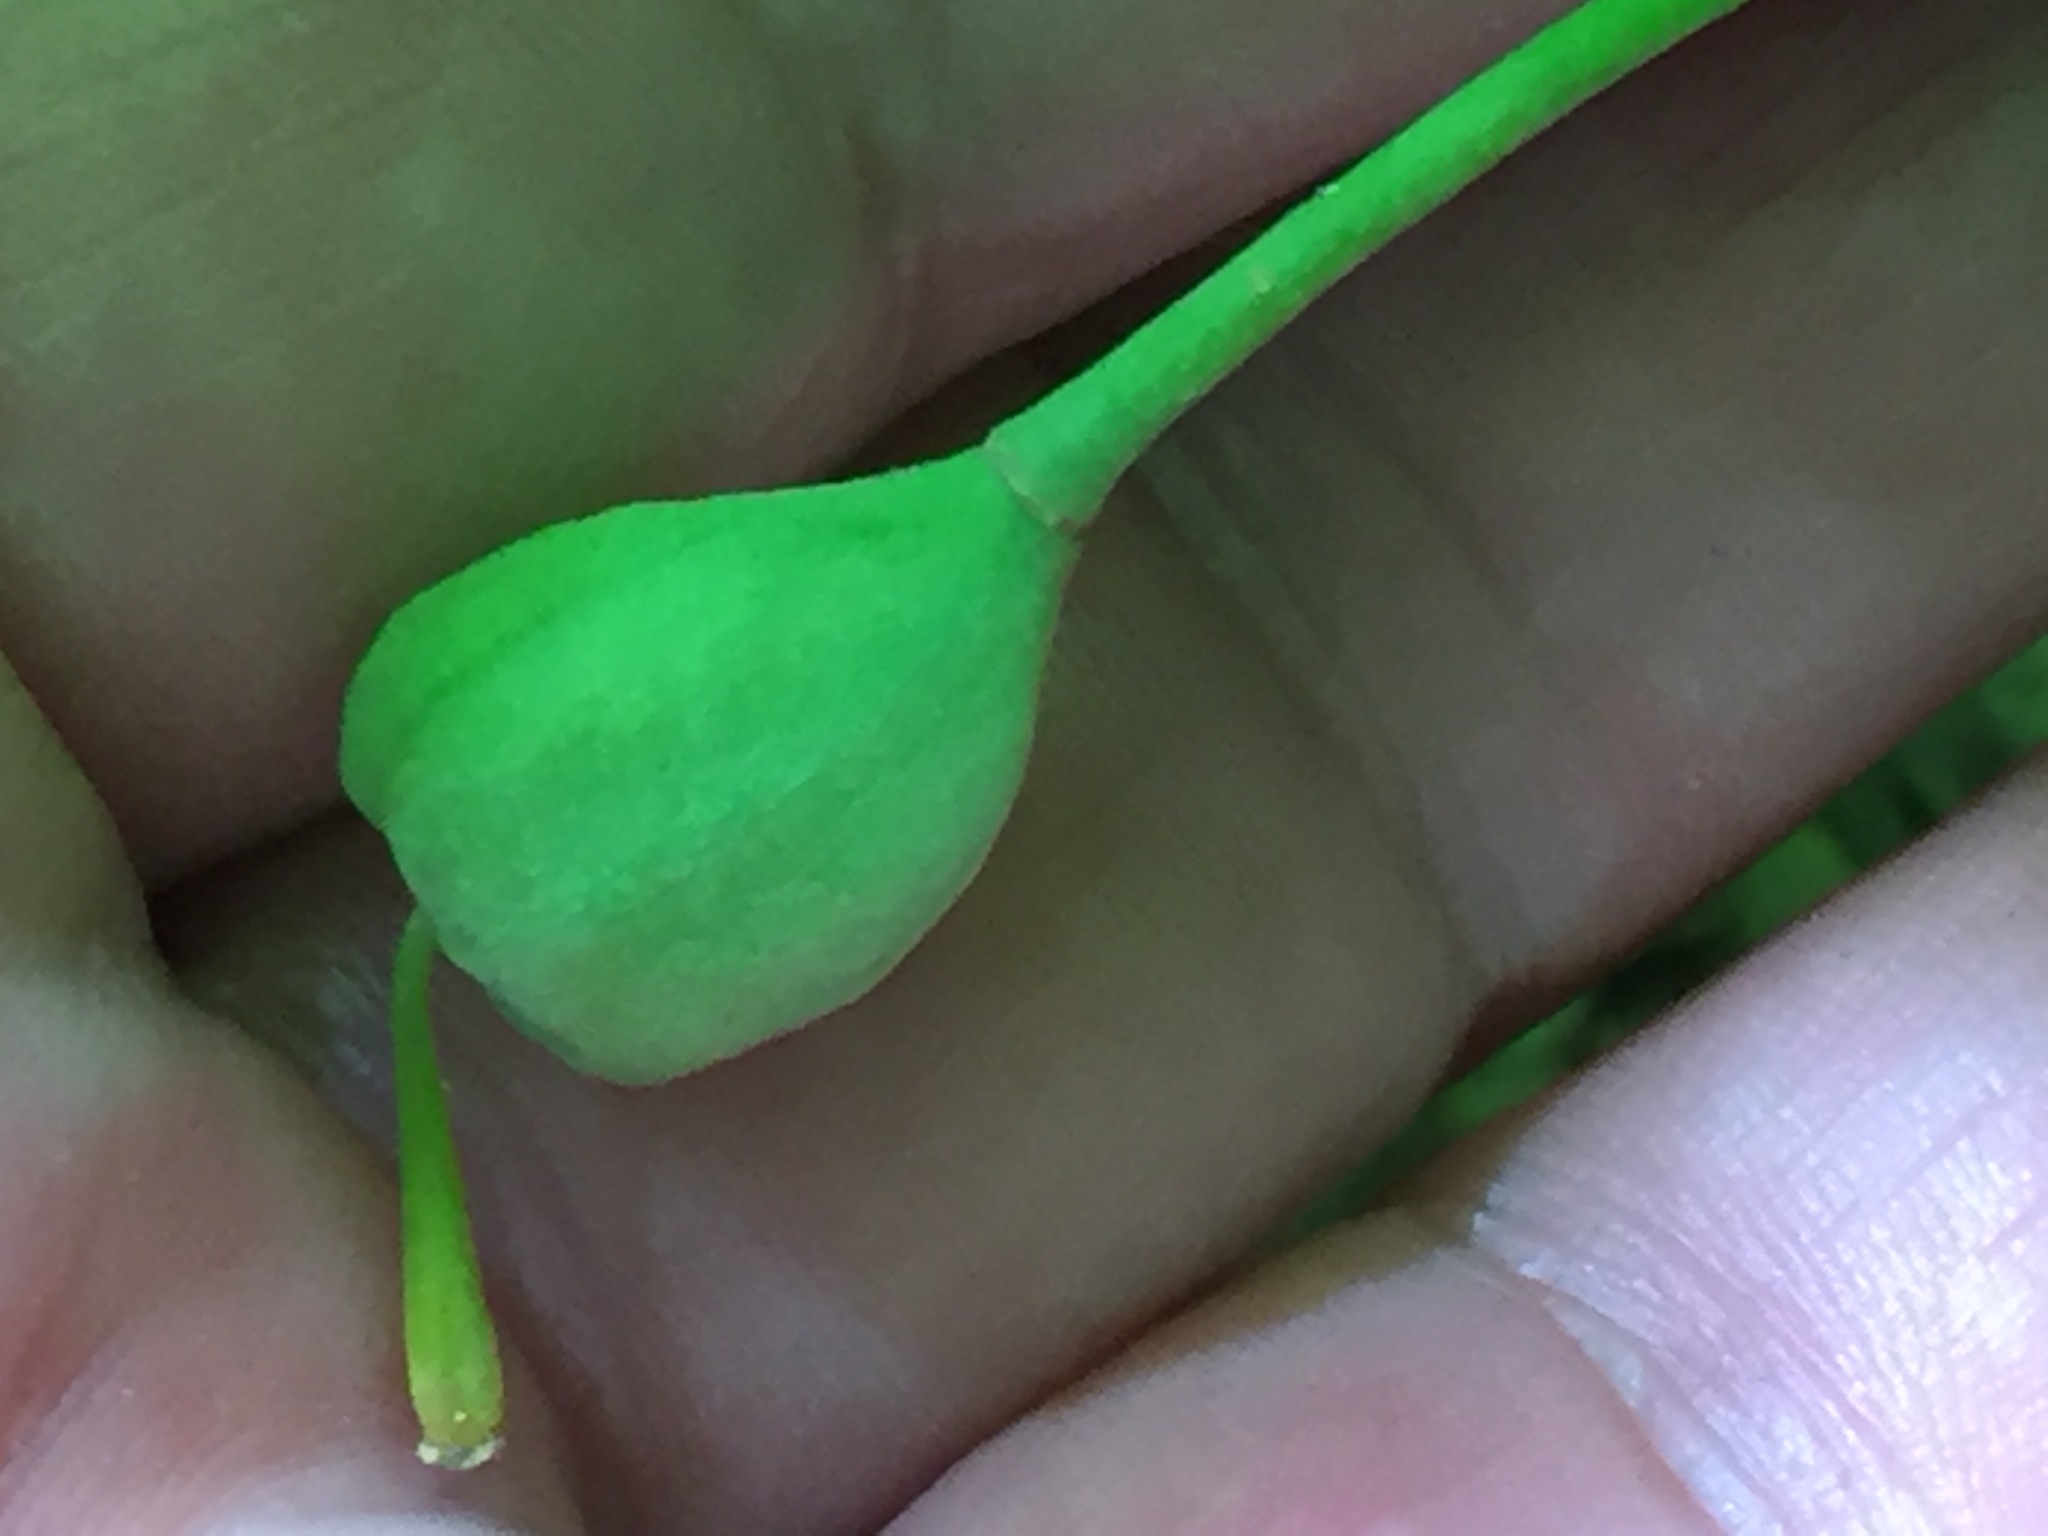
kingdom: Plantae
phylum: Tracheophyta
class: Liliopsida
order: Liliales
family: Liliaceae
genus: Erythronium
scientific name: Erythronium americanum
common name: Yellow adder's-tongue
